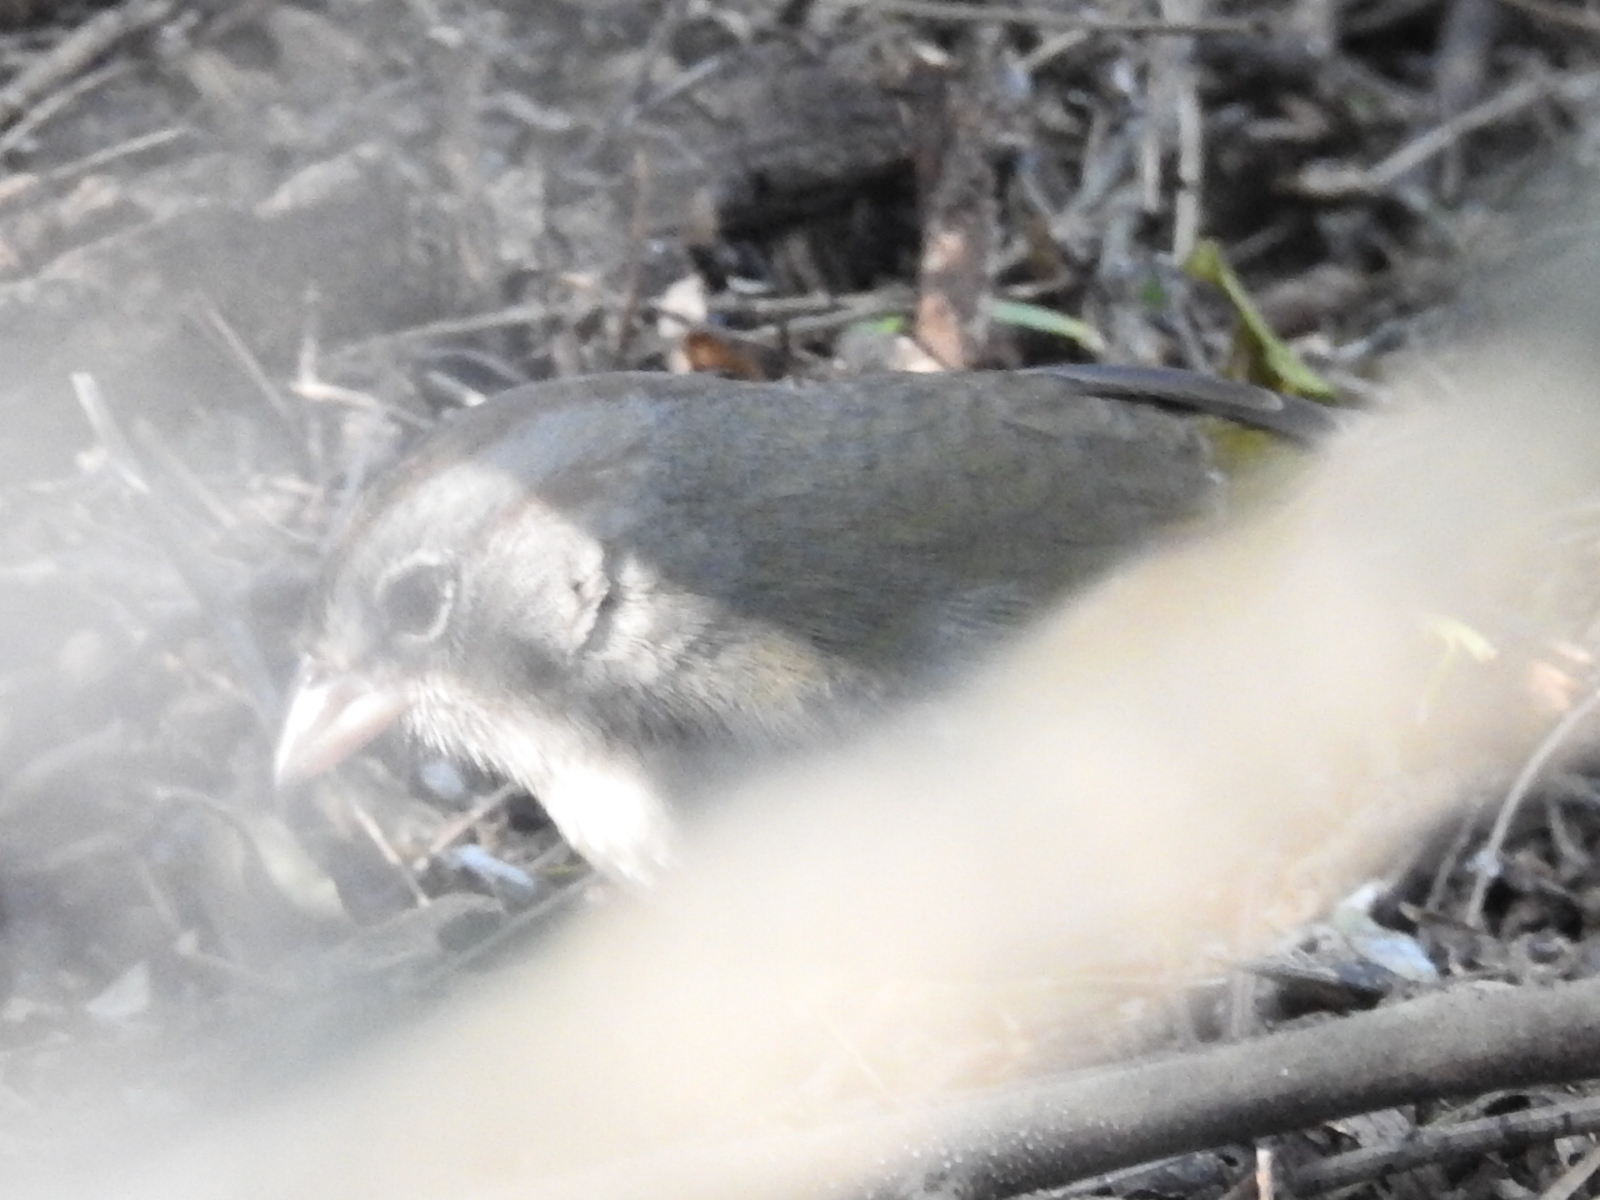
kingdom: Animalia
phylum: Chordata
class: Aves
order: Passeriformes
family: Passerellidae
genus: Arremonops
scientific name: Arremonops rufivirgatus
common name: Olive sparrow
